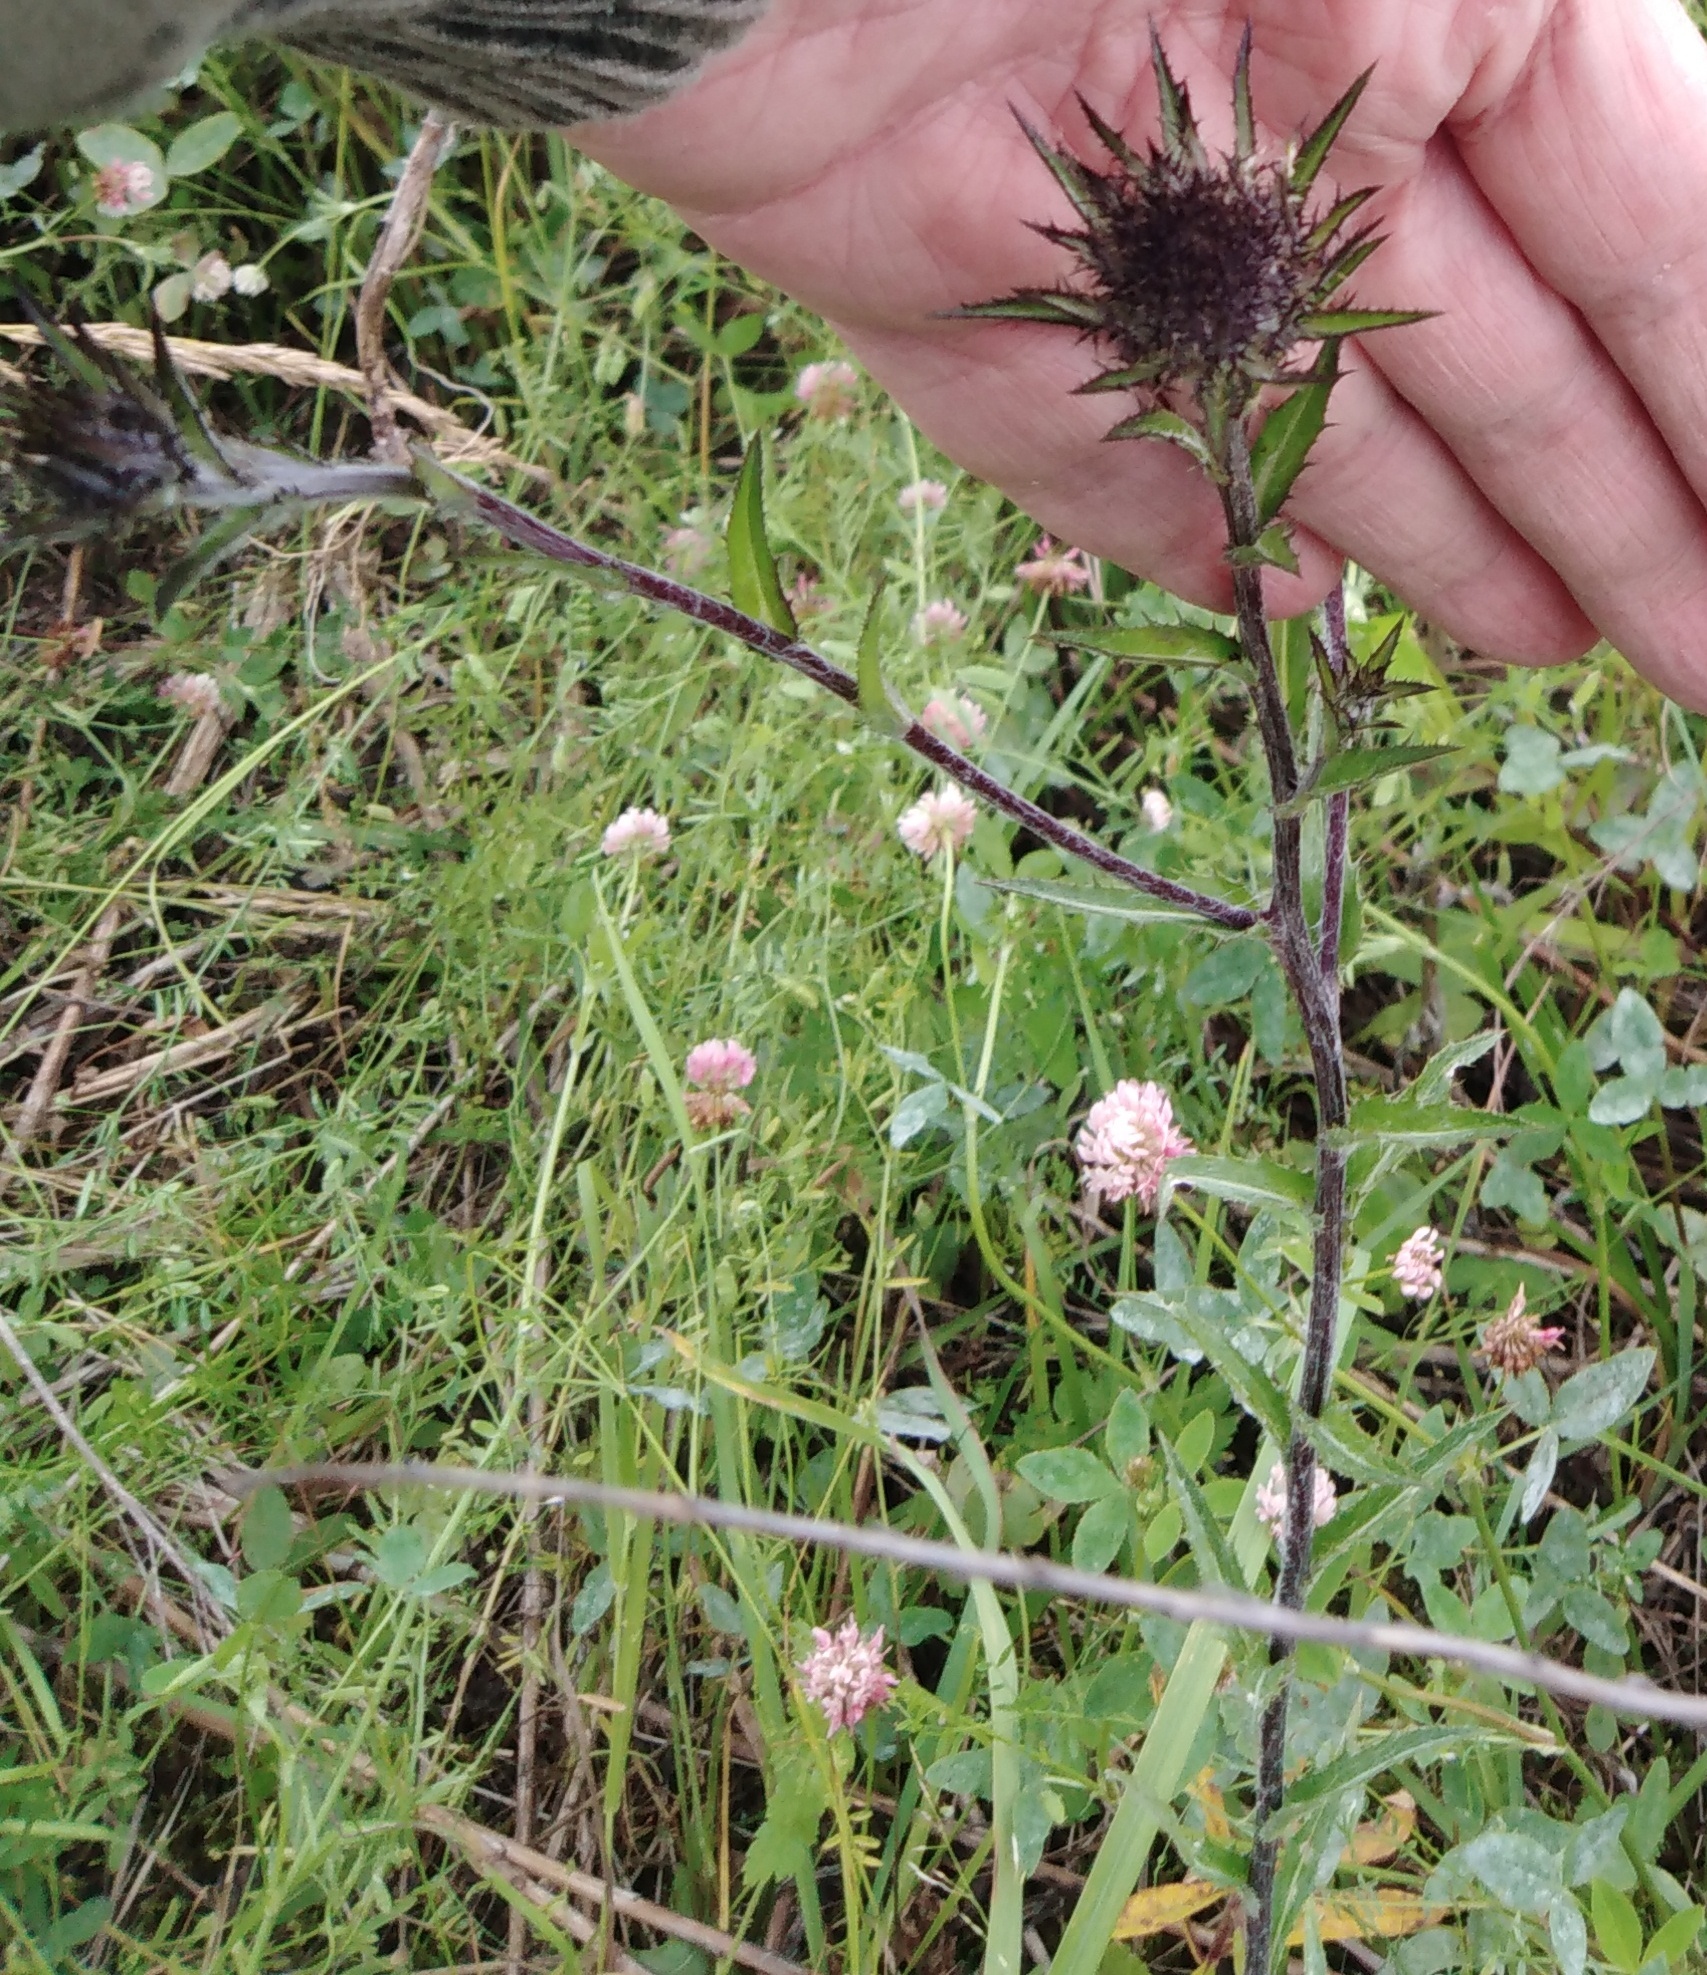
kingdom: Plantae
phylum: Tracheophyta
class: Magnoliopsida
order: Asterales
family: Asteraceae
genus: Carlina
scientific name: Carlina biebersteinii
